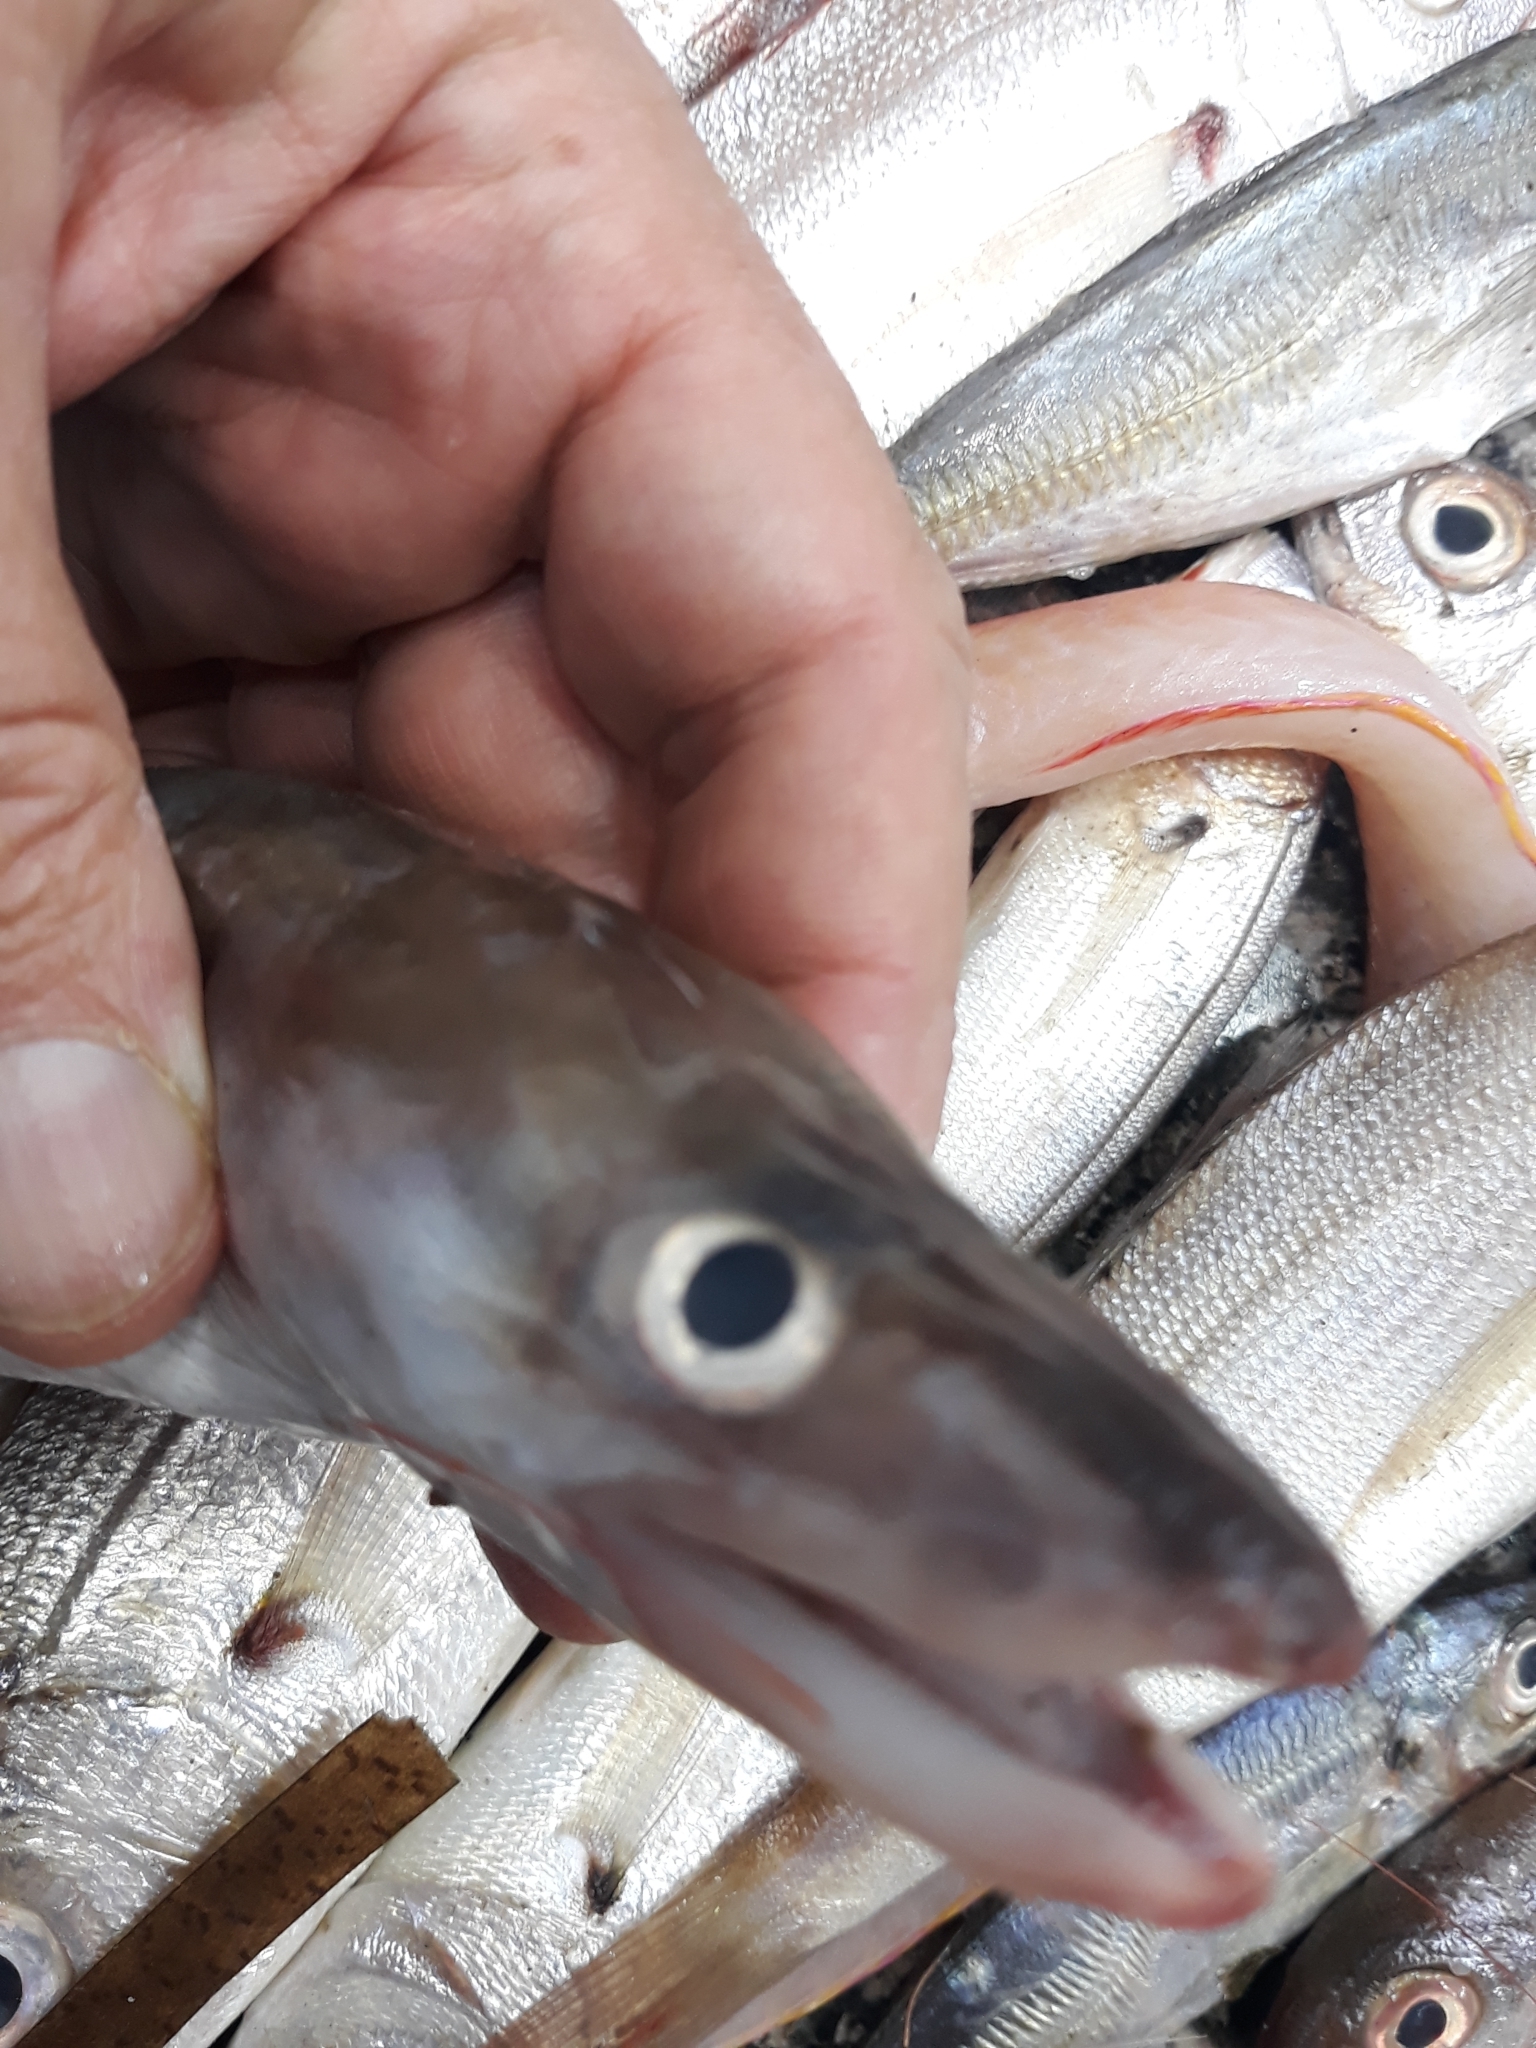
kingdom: Animalia
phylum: Chordata
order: Anguilliformes
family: Congridae
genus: Conger
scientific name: Conger conger
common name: Conger eel
